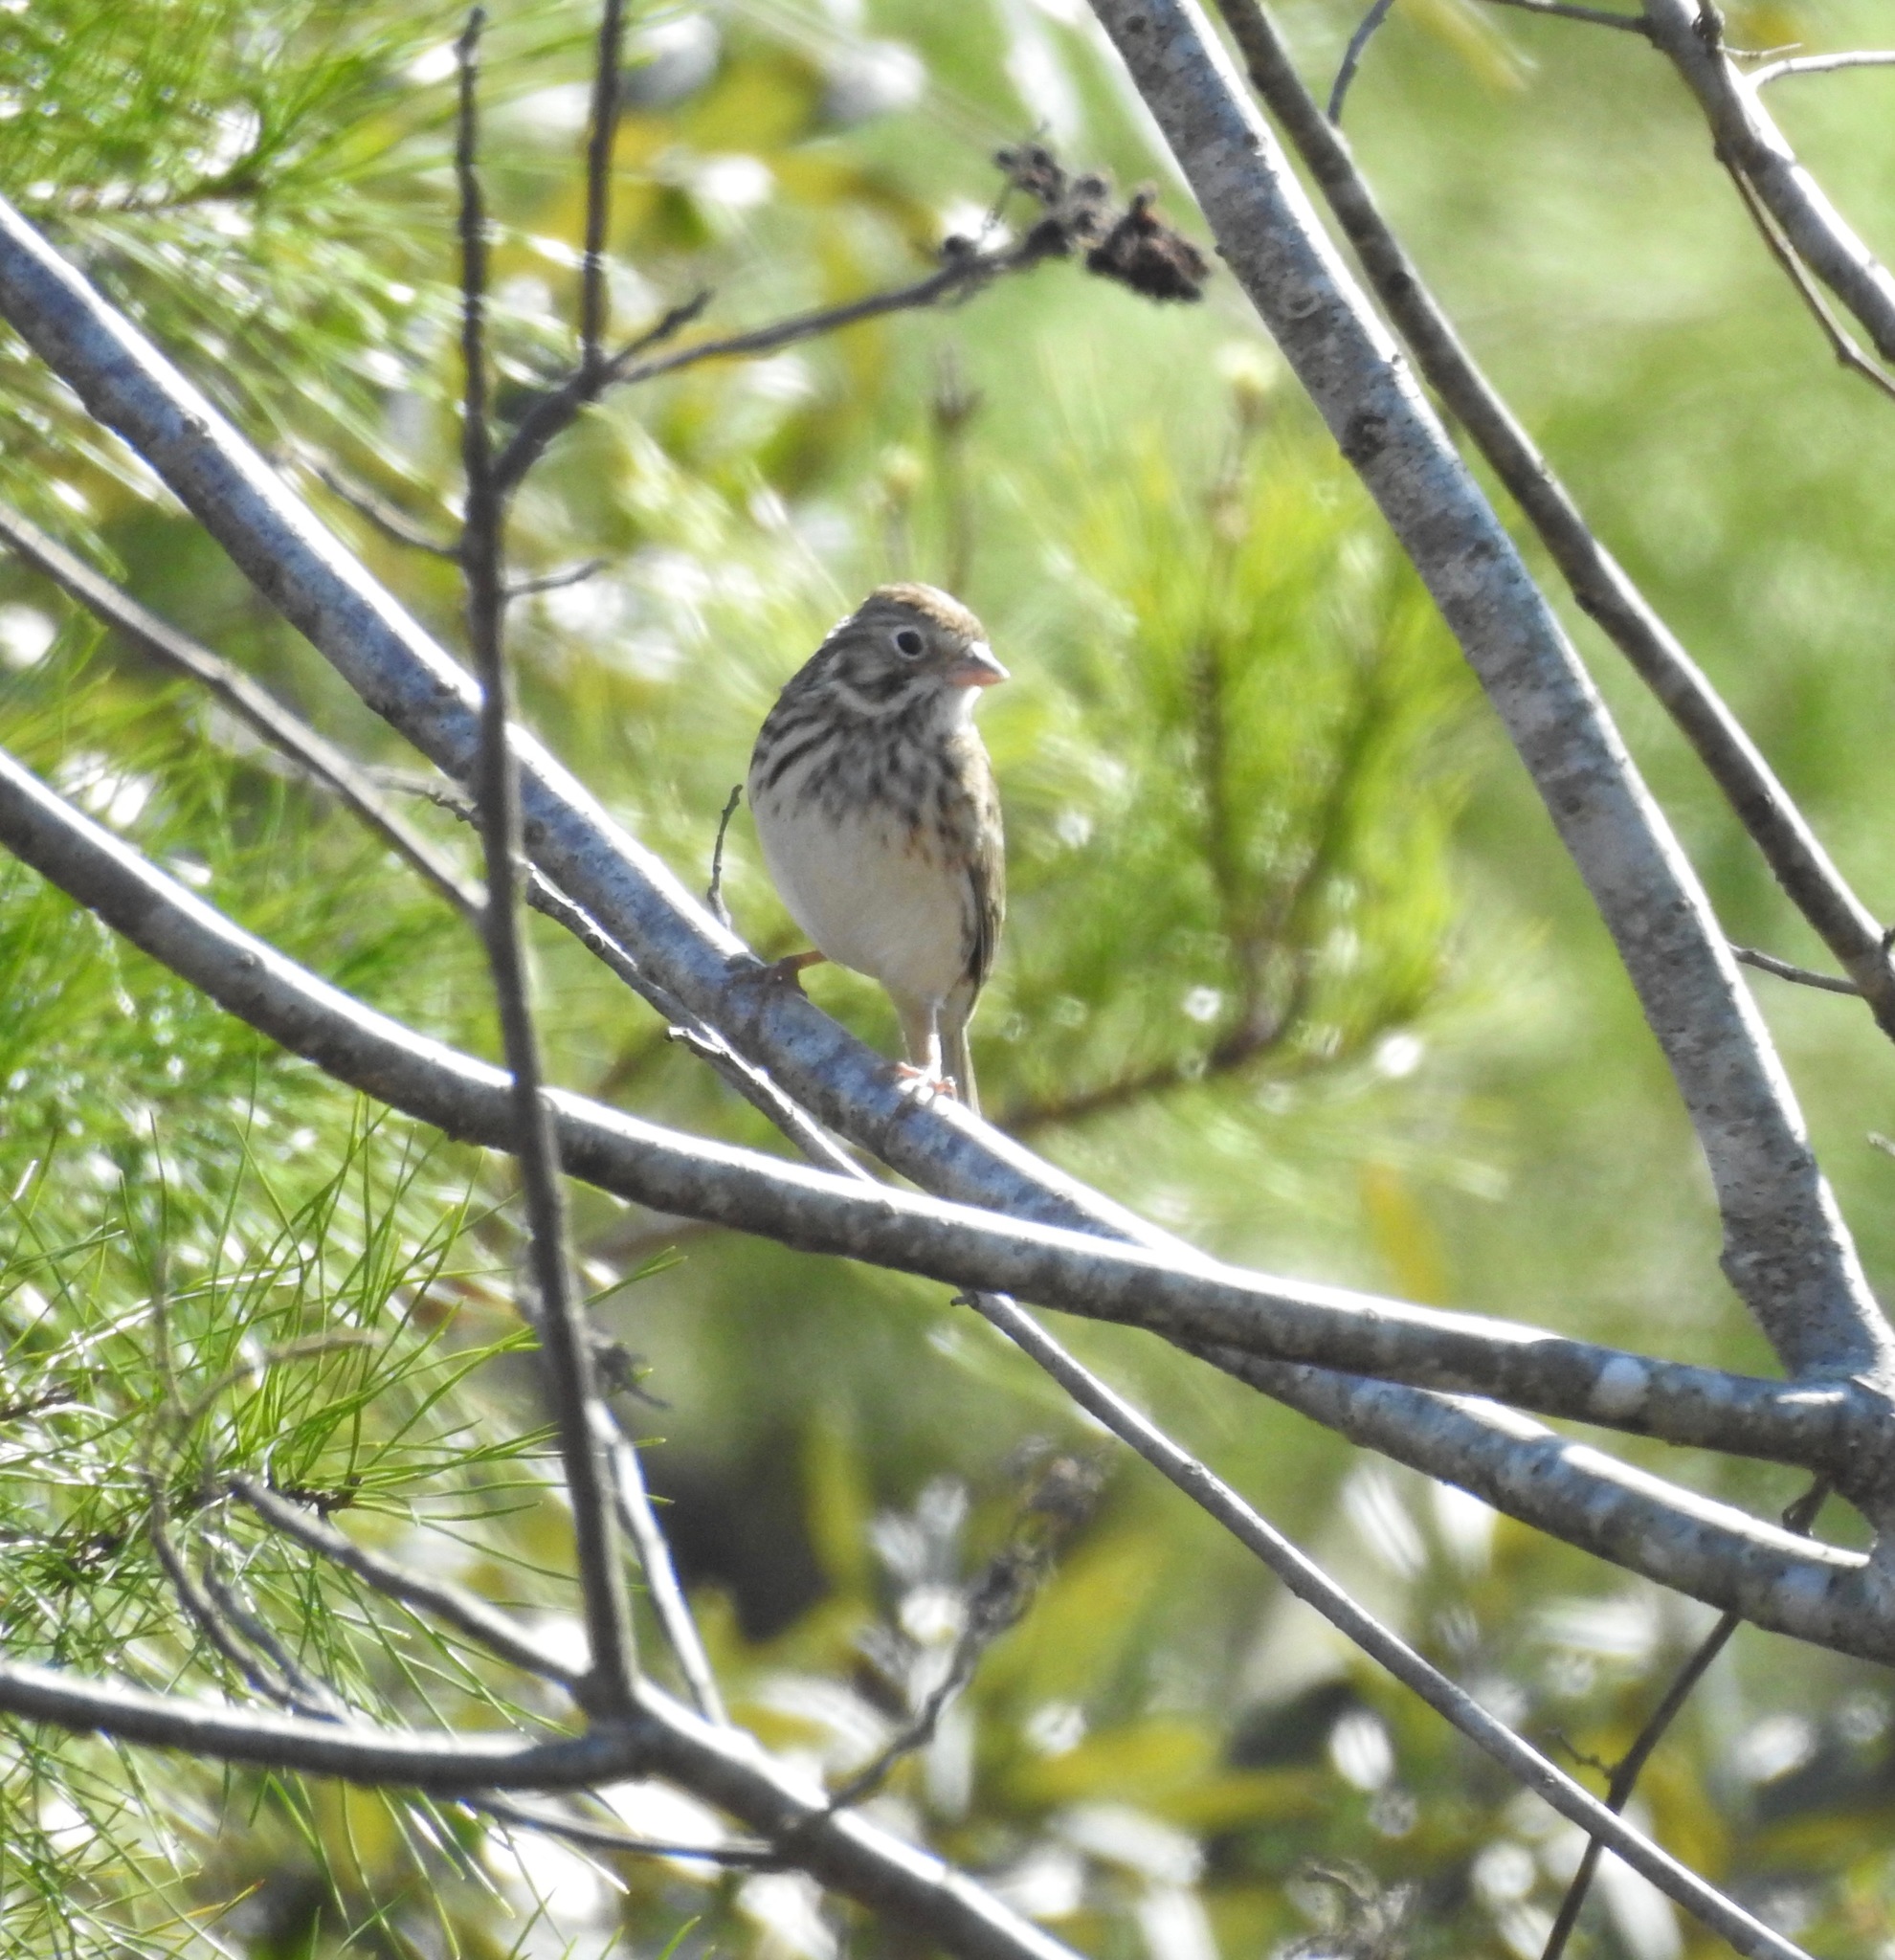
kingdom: Animalia
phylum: Chordata
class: Aves
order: Passeriformes
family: Passerellidae
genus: Pooecetes
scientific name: Pooecetes gramineus
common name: Vesper sparrow
